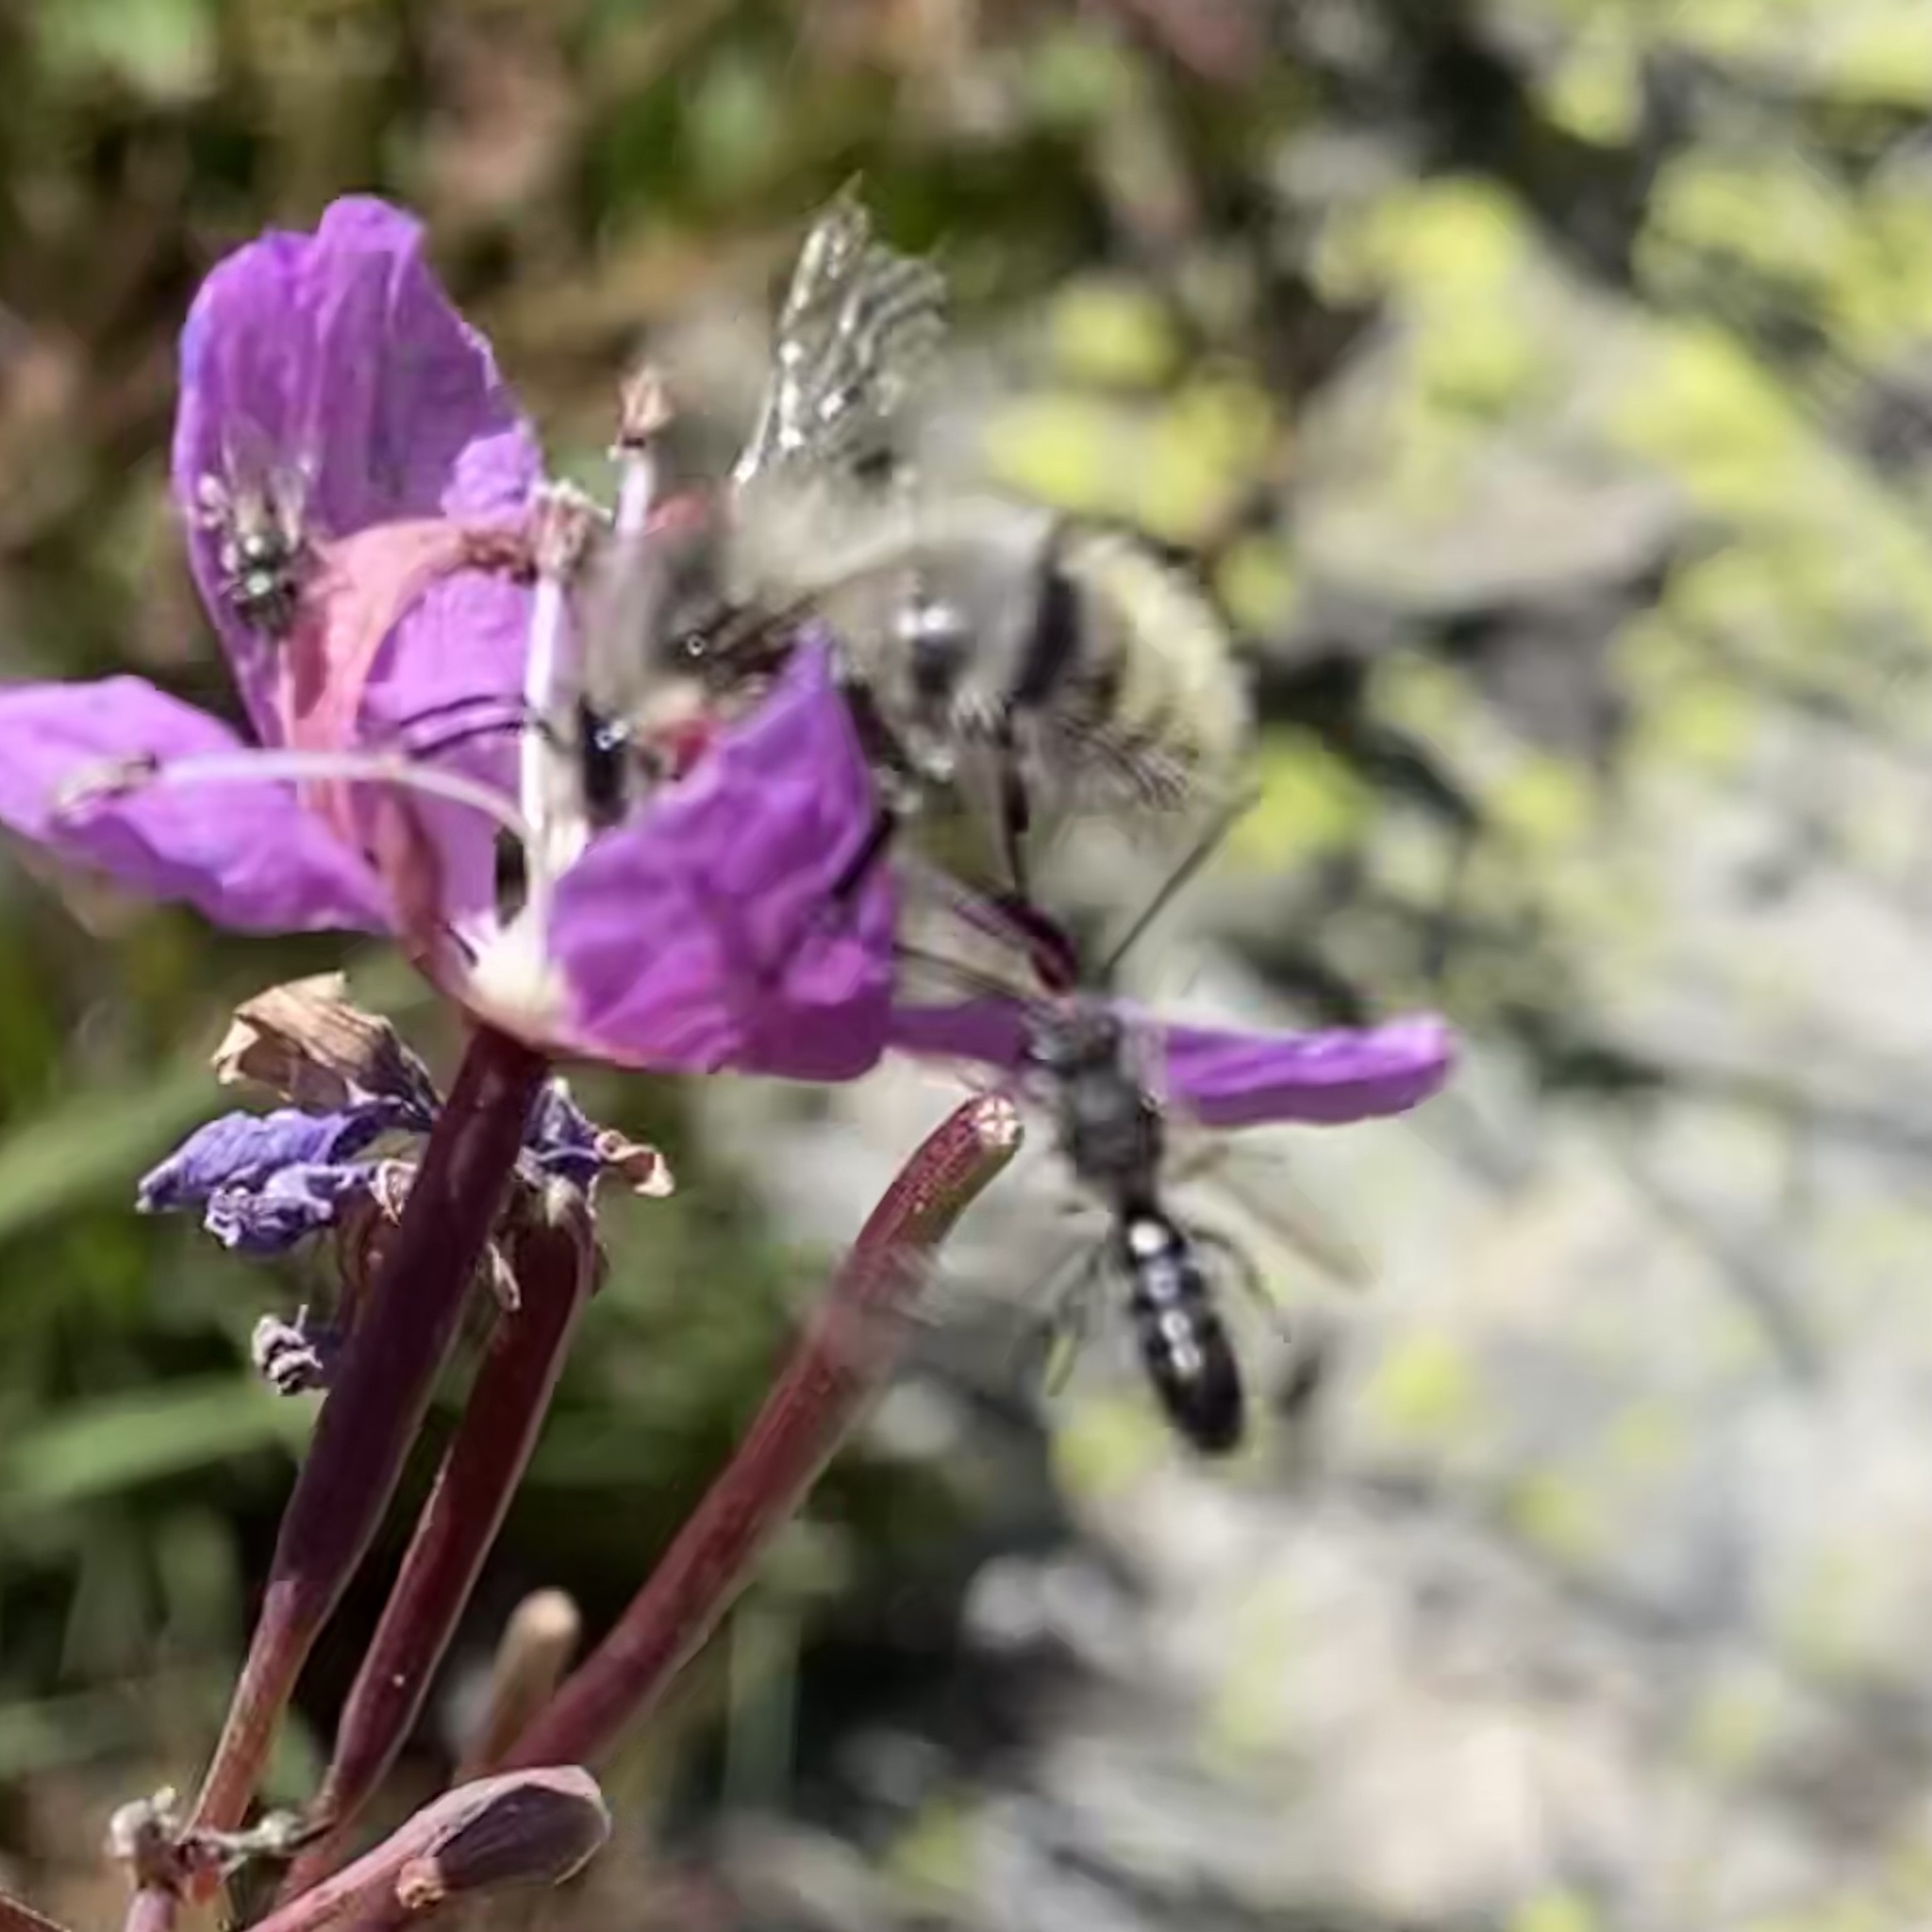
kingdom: Animalia
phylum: Arthropoda
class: Insecta
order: Hymenoptera
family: Halictidae
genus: Lasioglossum
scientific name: Lasioglossum
